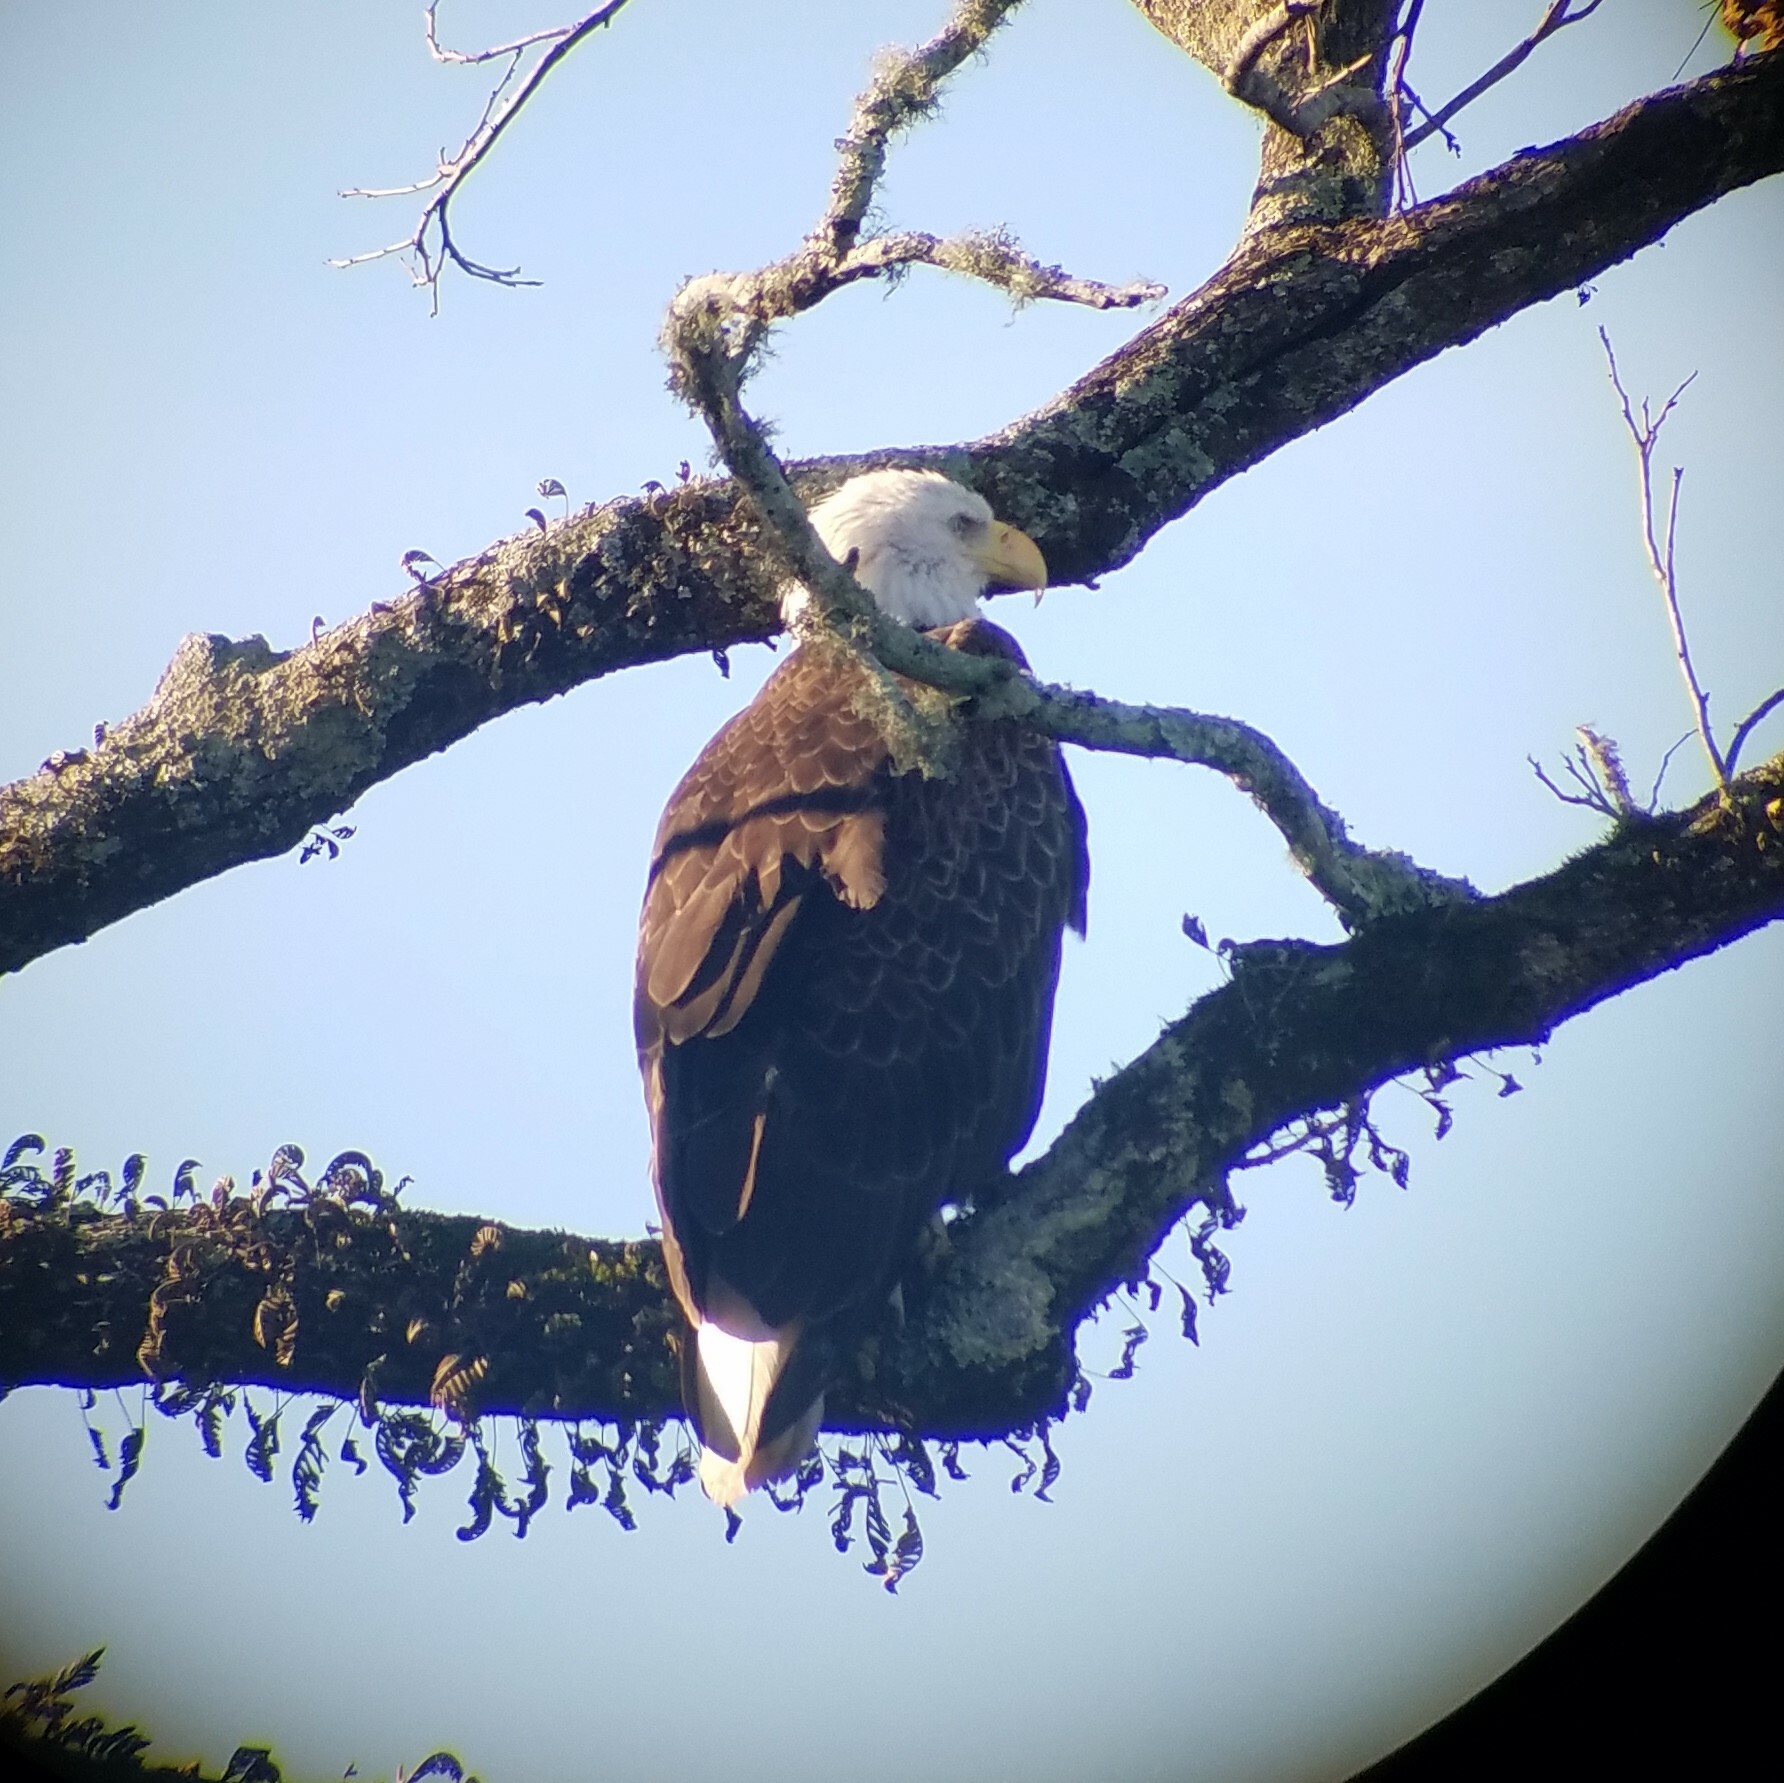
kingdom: Animalia
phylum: Chordata
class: Aves
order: Accipitriformes
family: Accipitridae
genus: Haliaeetus
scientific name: Haliaeetus leucocephalus
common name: Bald eagle
